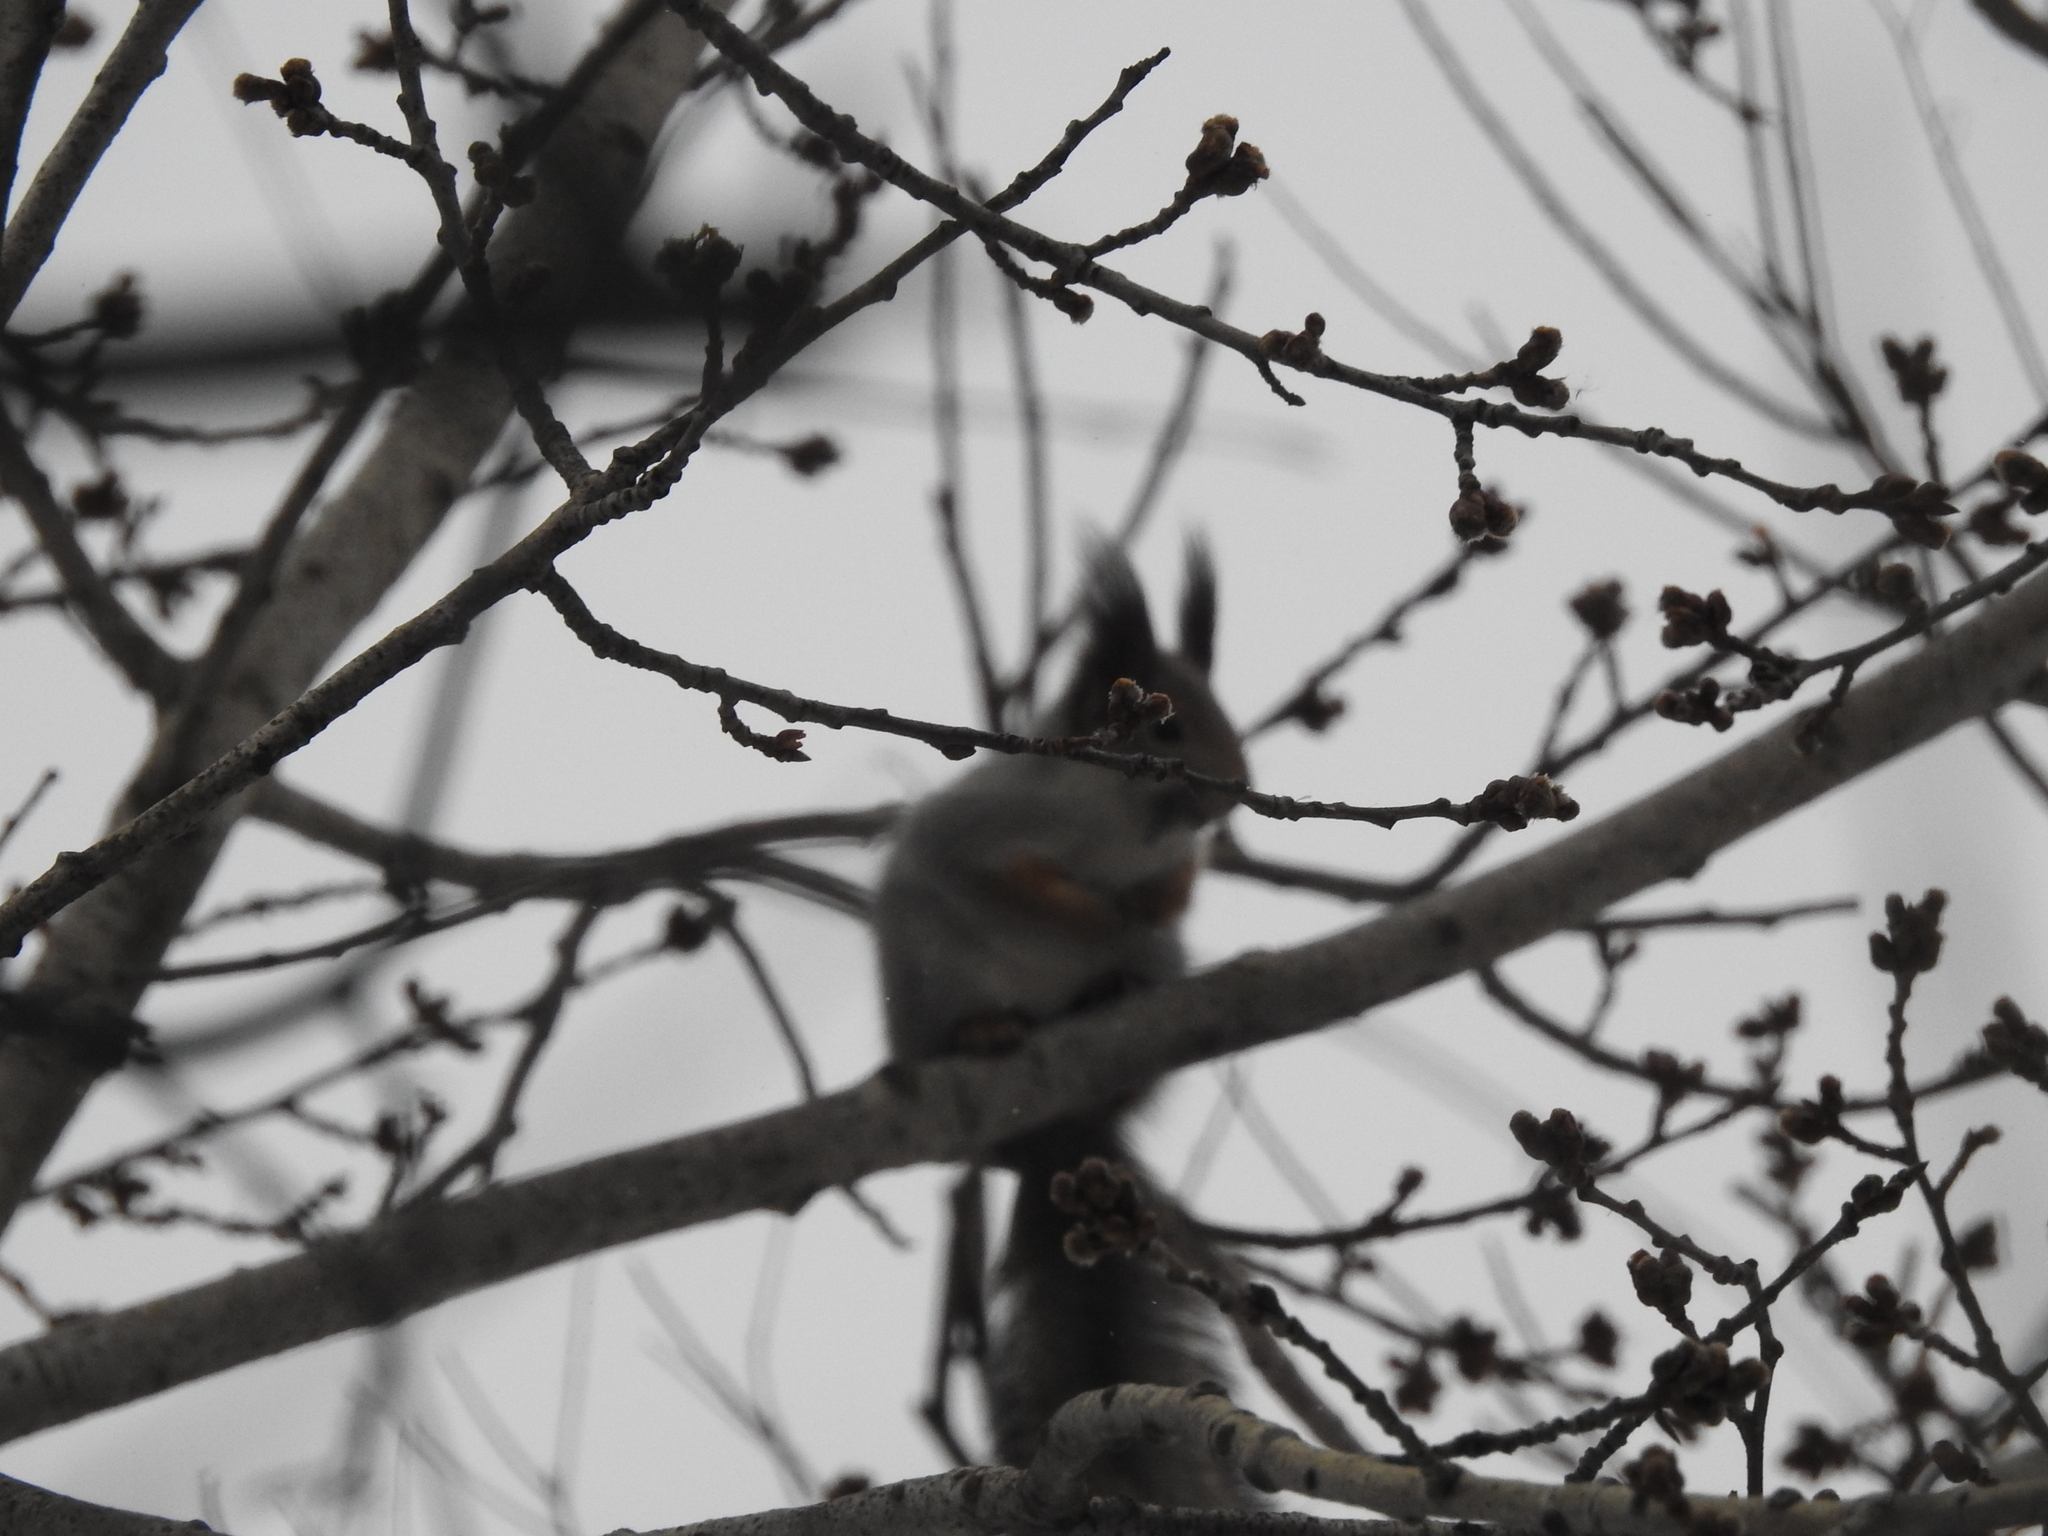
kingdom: Animalia
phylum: Chordata
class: Mammalia
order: Rodentia
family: Sciuridae
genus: Sciurus
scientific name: Sciurus vulgaris
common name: Eurasian red squirrel
